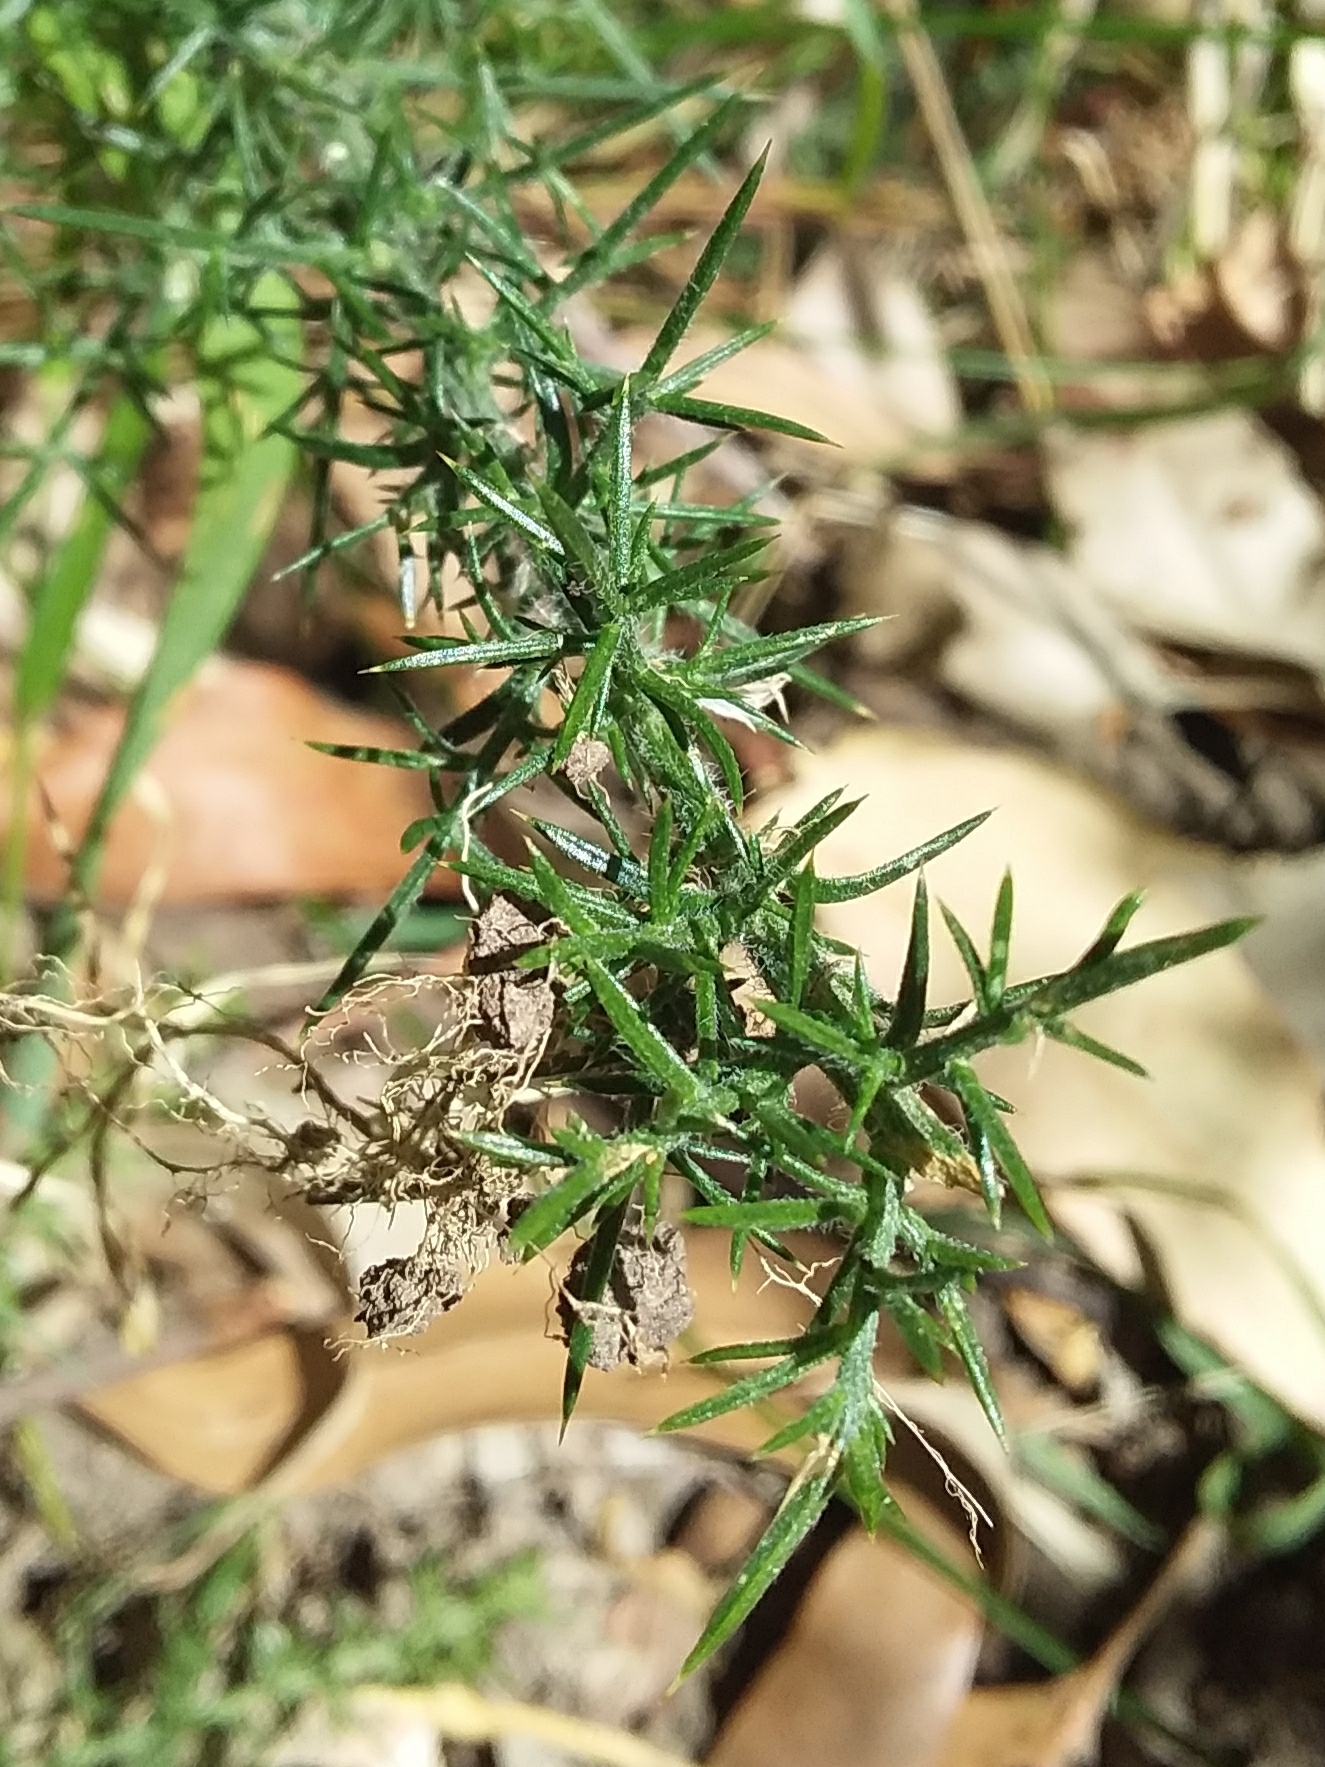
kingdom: Plantae
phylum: Tracheophyta
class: Magnoliopsida
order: Fabales
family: Fabaceae
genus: Ulex
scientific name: Ulex europaeus
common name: Common gorse
